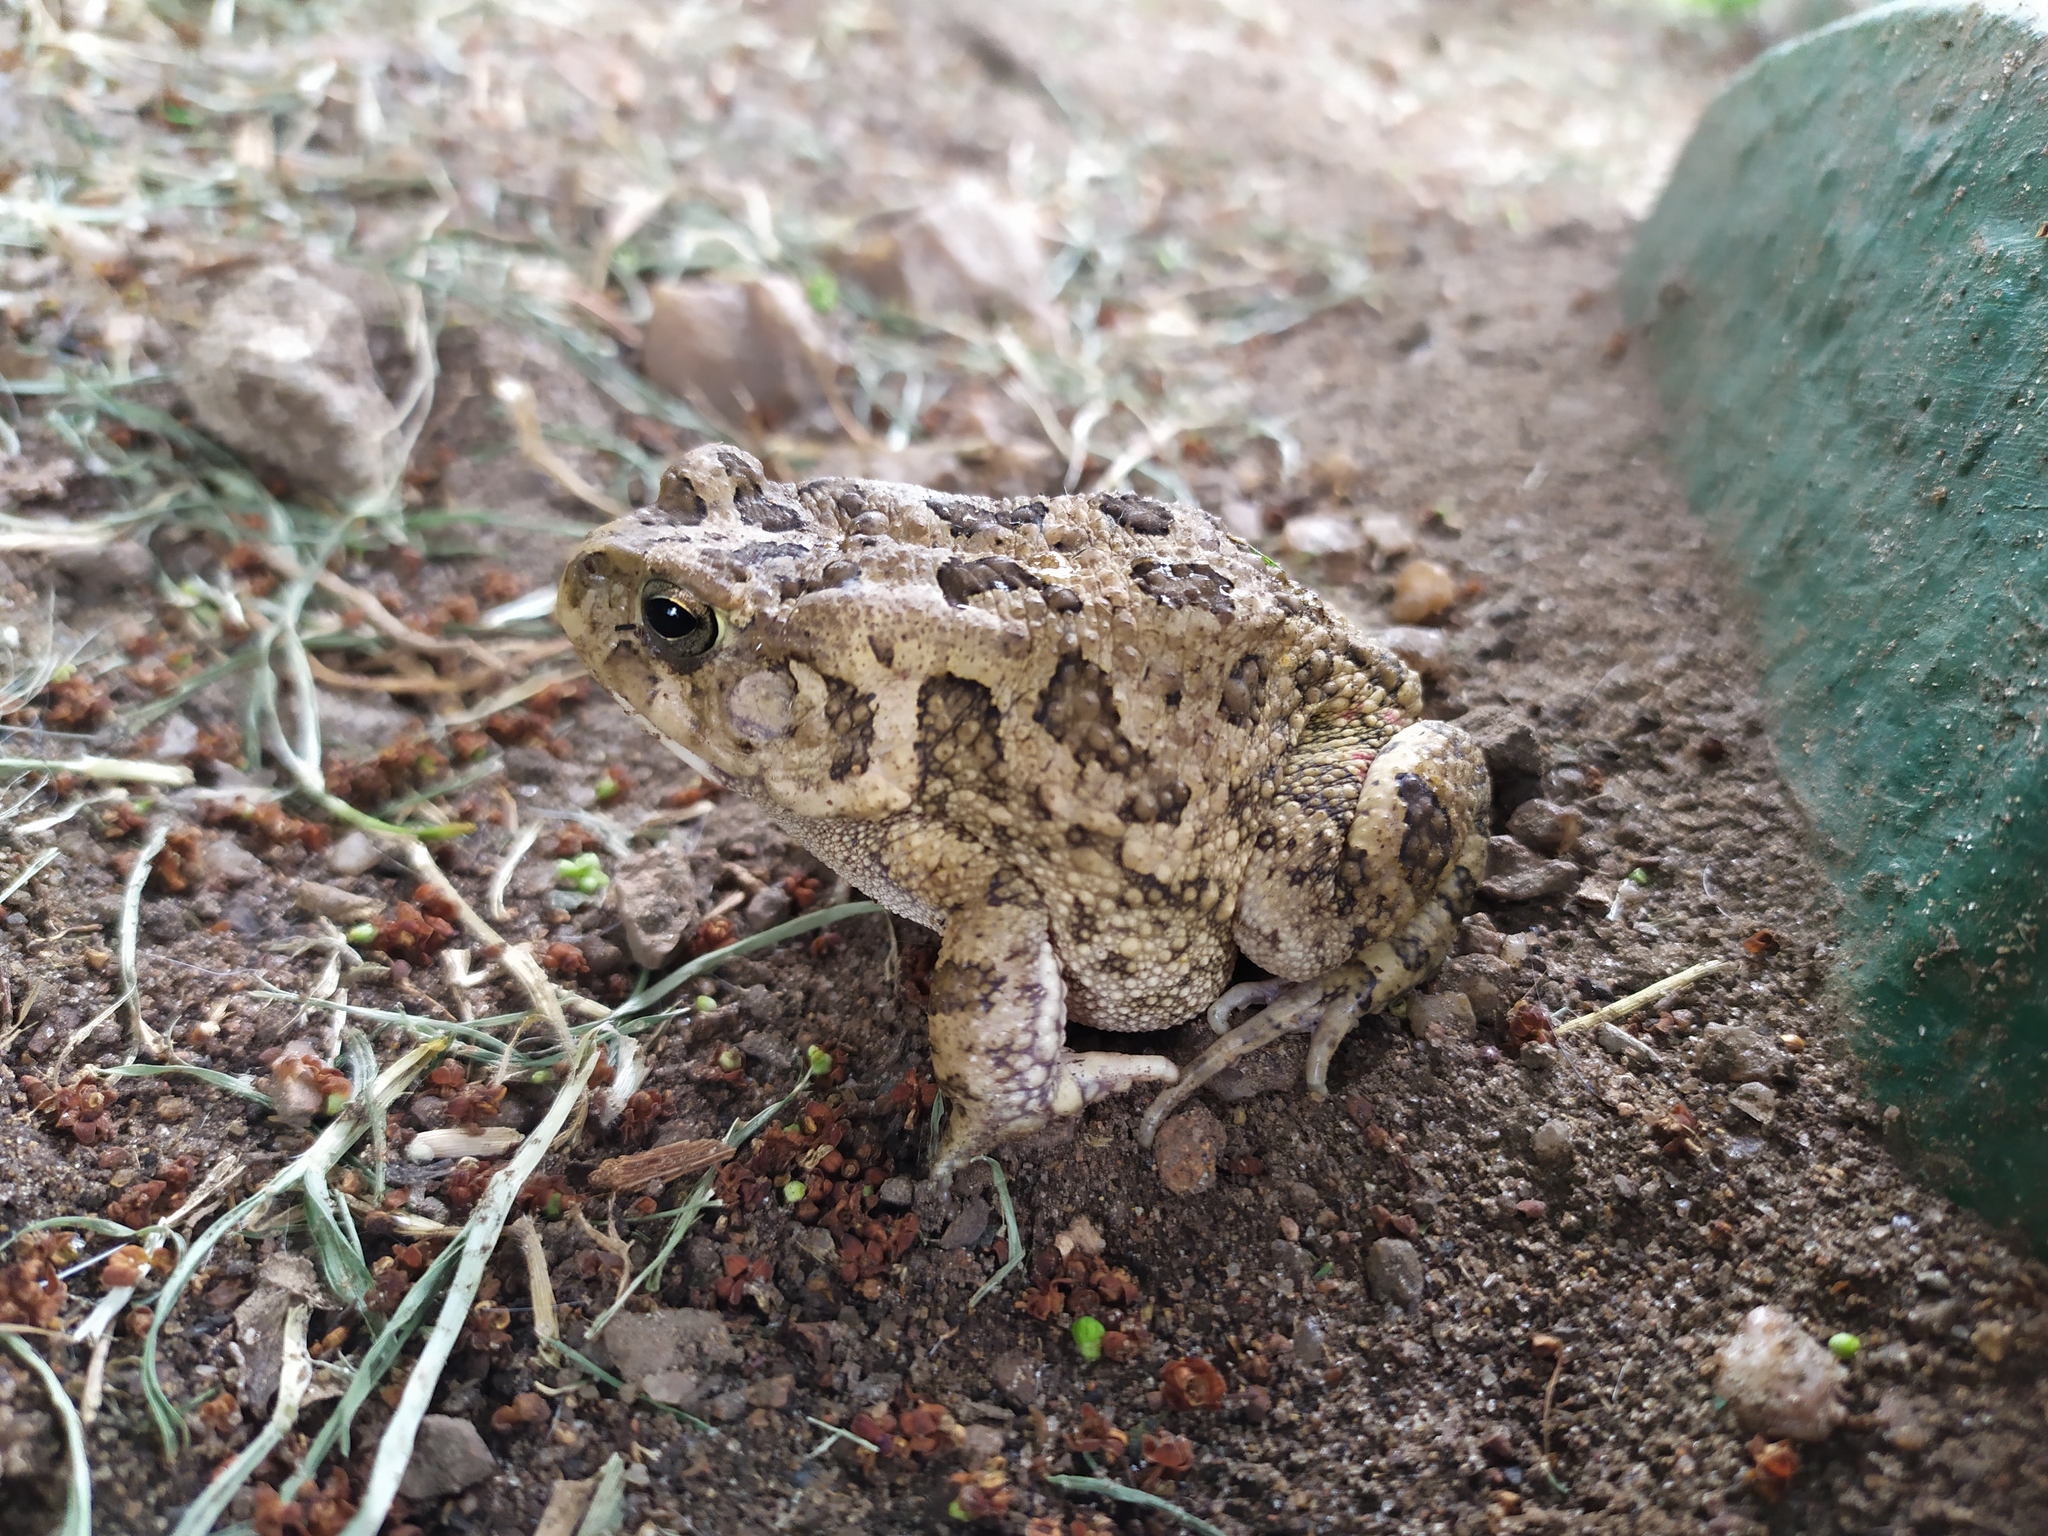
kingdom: Animalia
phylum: Chordata
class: Amphibia
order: Anura
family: Bufonidae
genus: Sclerophrys
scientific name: Sclerophrys gutturalis
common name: African common toad
